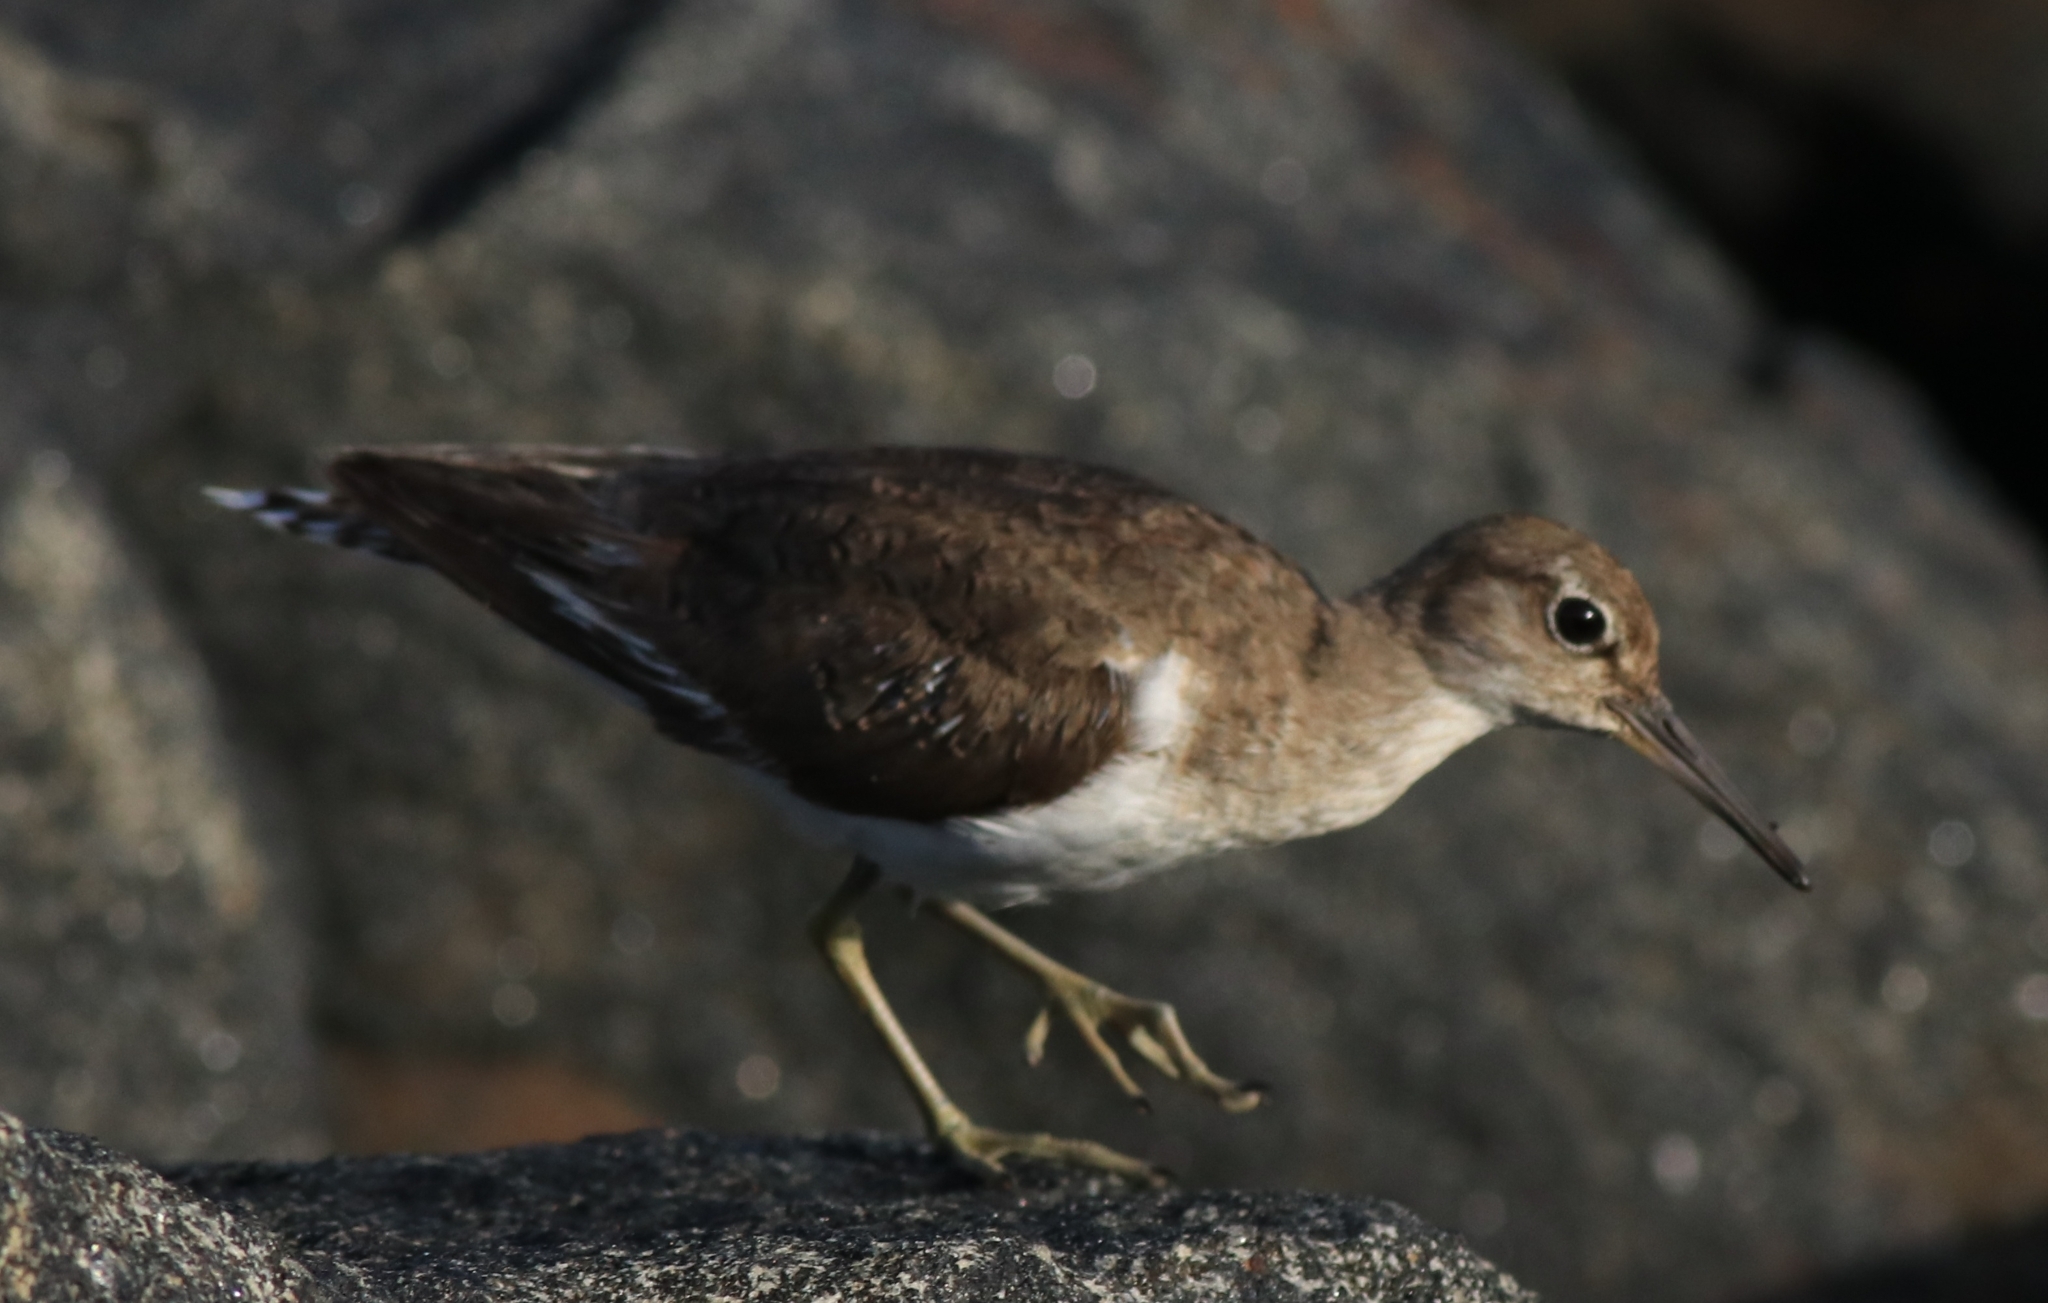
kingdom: Animalia
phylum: Chordata
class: Aves
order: Charadriiformes
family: Scolopacidae
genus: Actitis
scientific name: Actitis hypoleucos
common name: Common sandpiper
